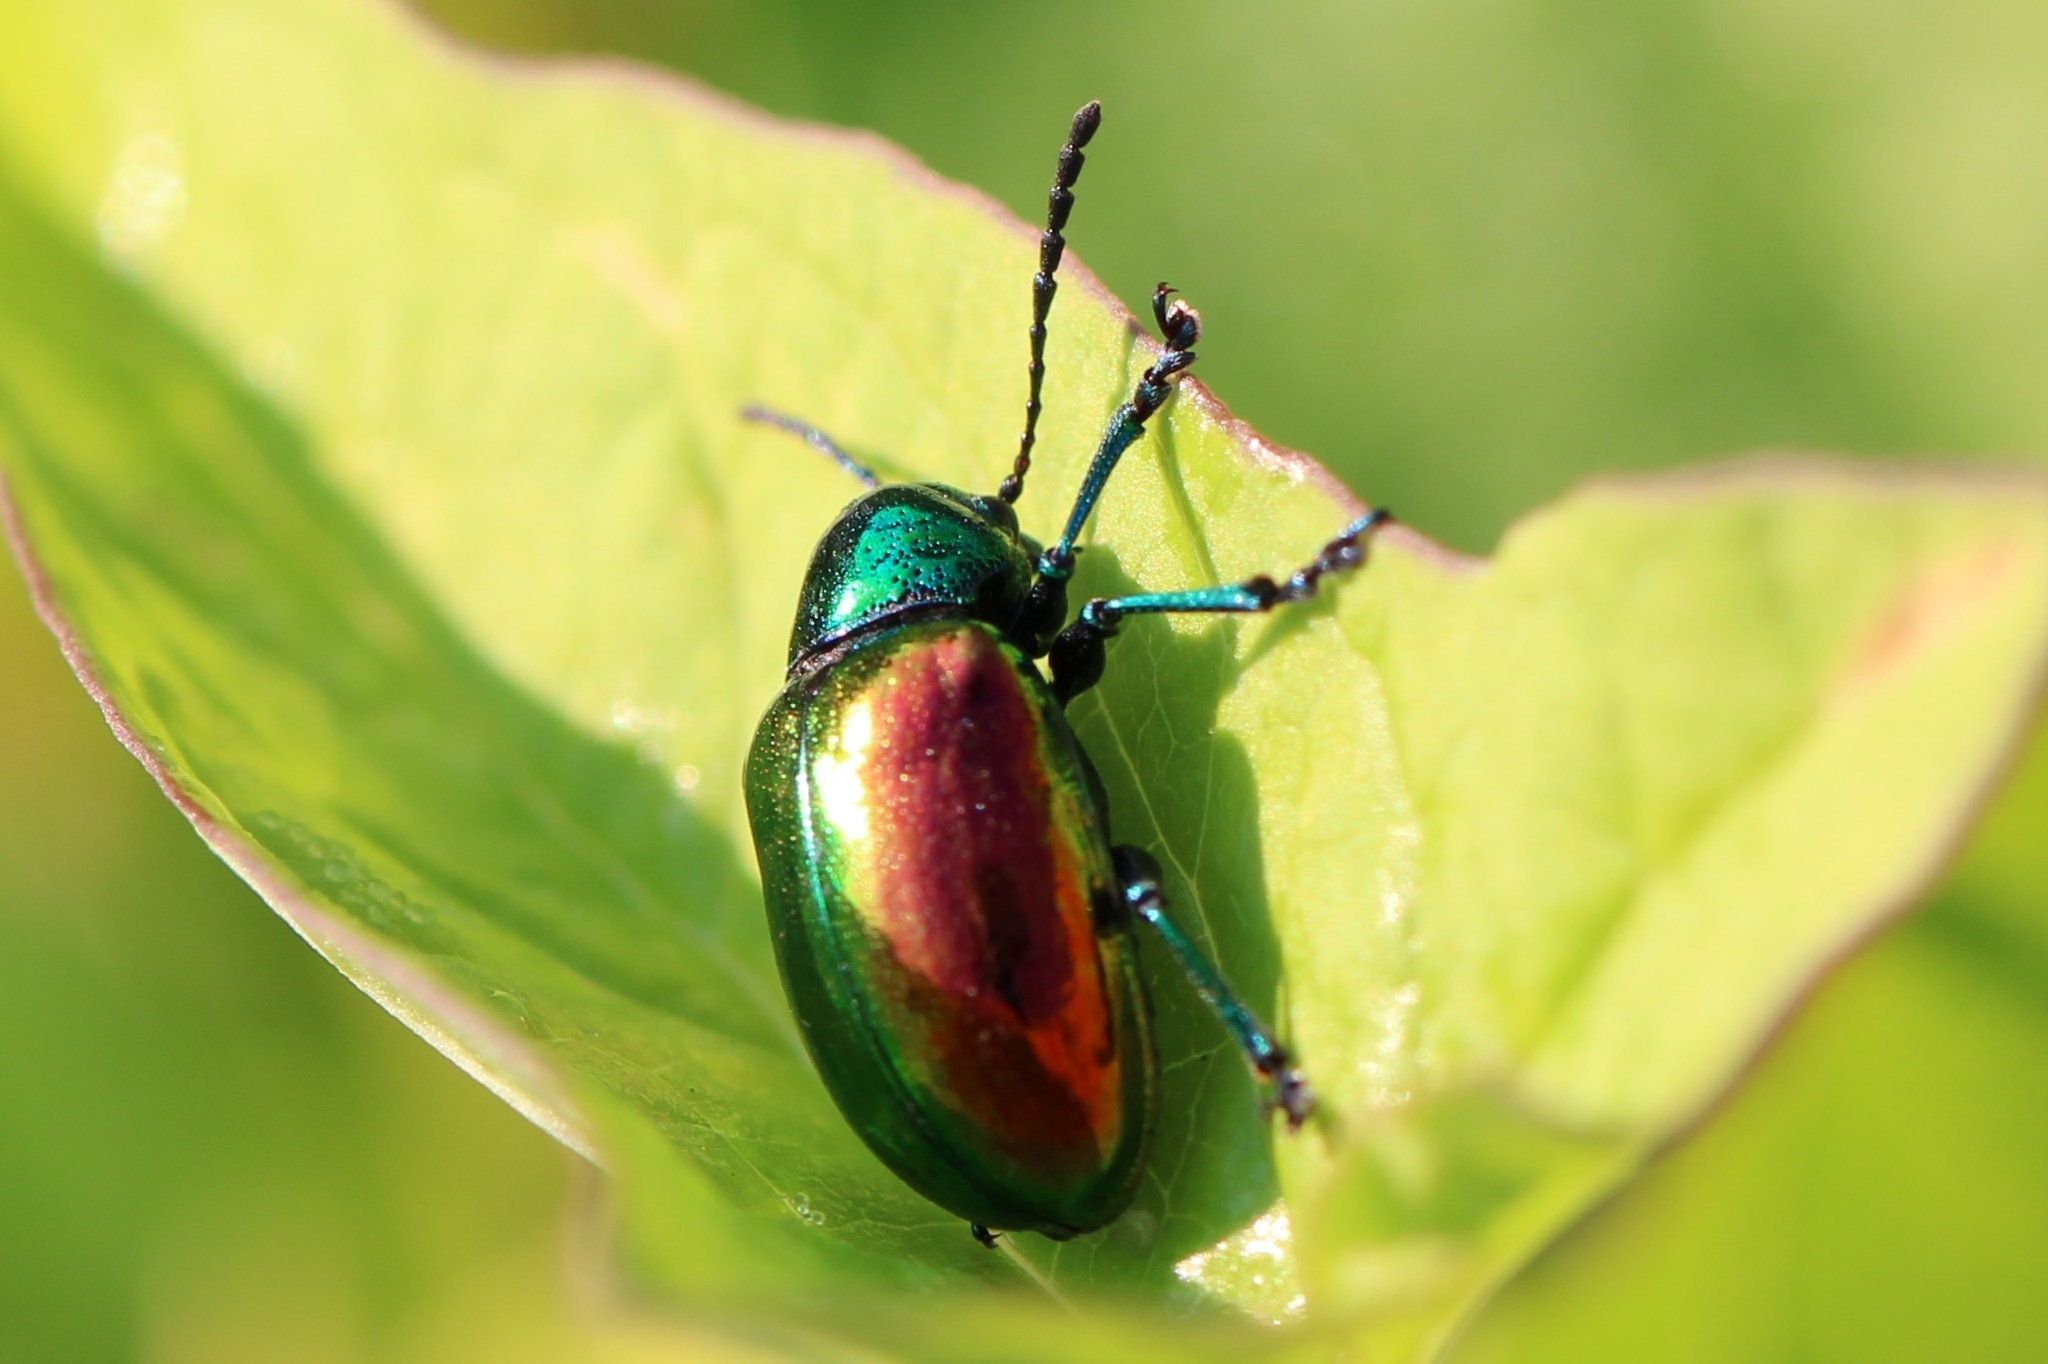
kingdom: Animalia
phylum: Arthropoda
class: Insecta
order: Coleoptera
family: Chrysomelidae
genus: Chrysochus
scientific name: Chrysochus auratus
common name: Dogbane leaf beetle
